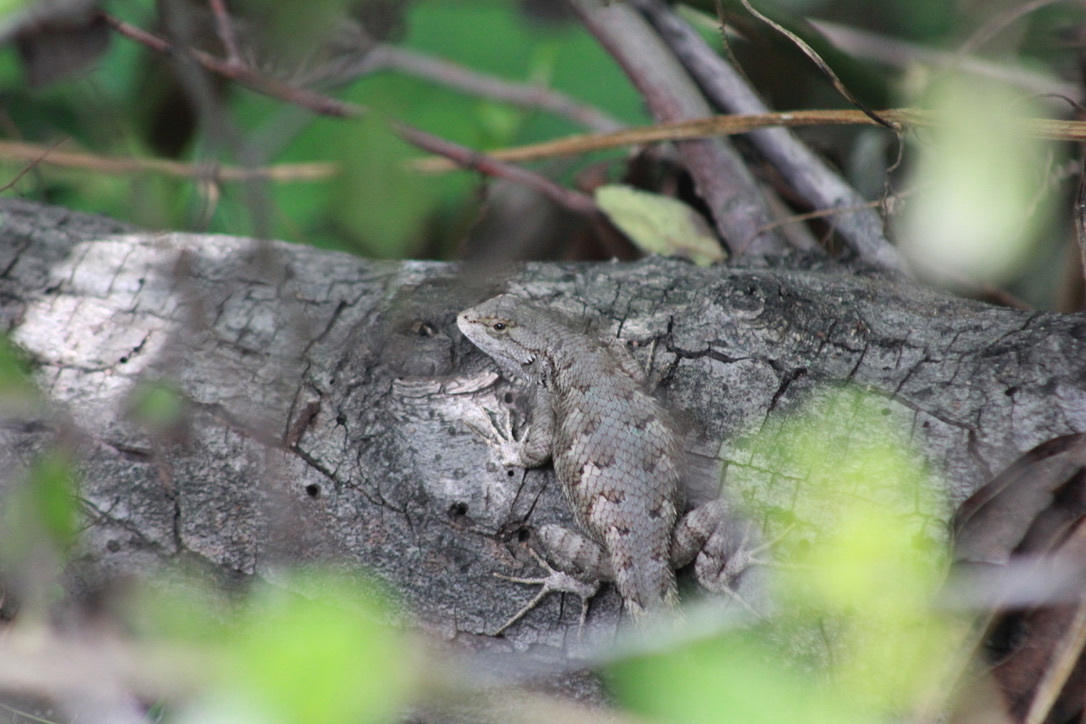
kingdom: Animalia
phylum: Chordata
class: Squamata
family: Phrynosomatidae
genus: Sceloporus
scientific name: Sceloporus occidentalis
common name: Western fence lizard
